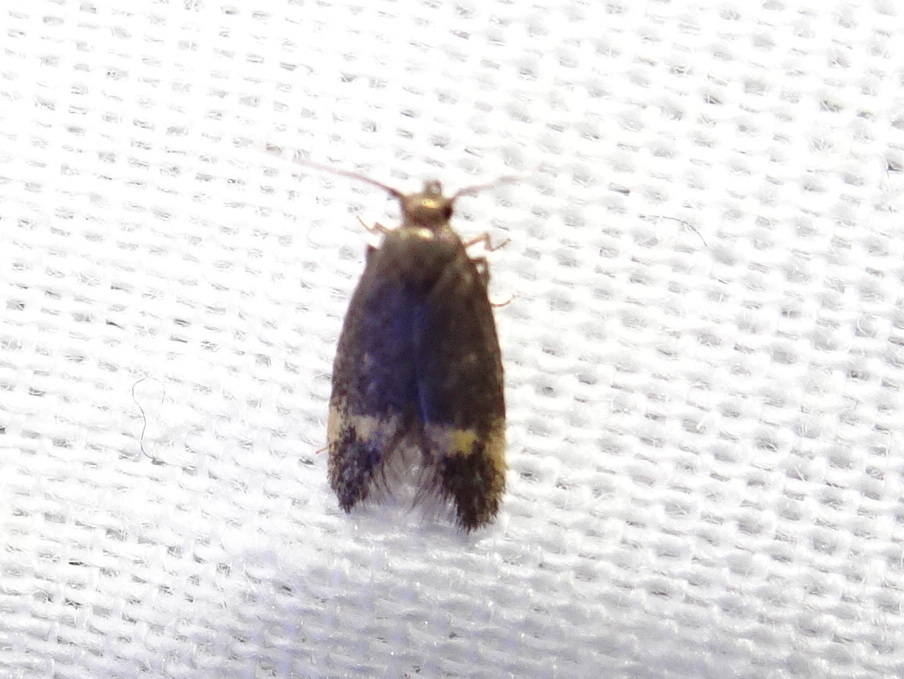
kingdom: Animalia
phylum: Arthropoda
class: Insecta
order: Lepidoptera
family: Oecophoridae
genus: Borkhausenia
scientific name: Borkhausenia minutella
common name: Thatch tubic
